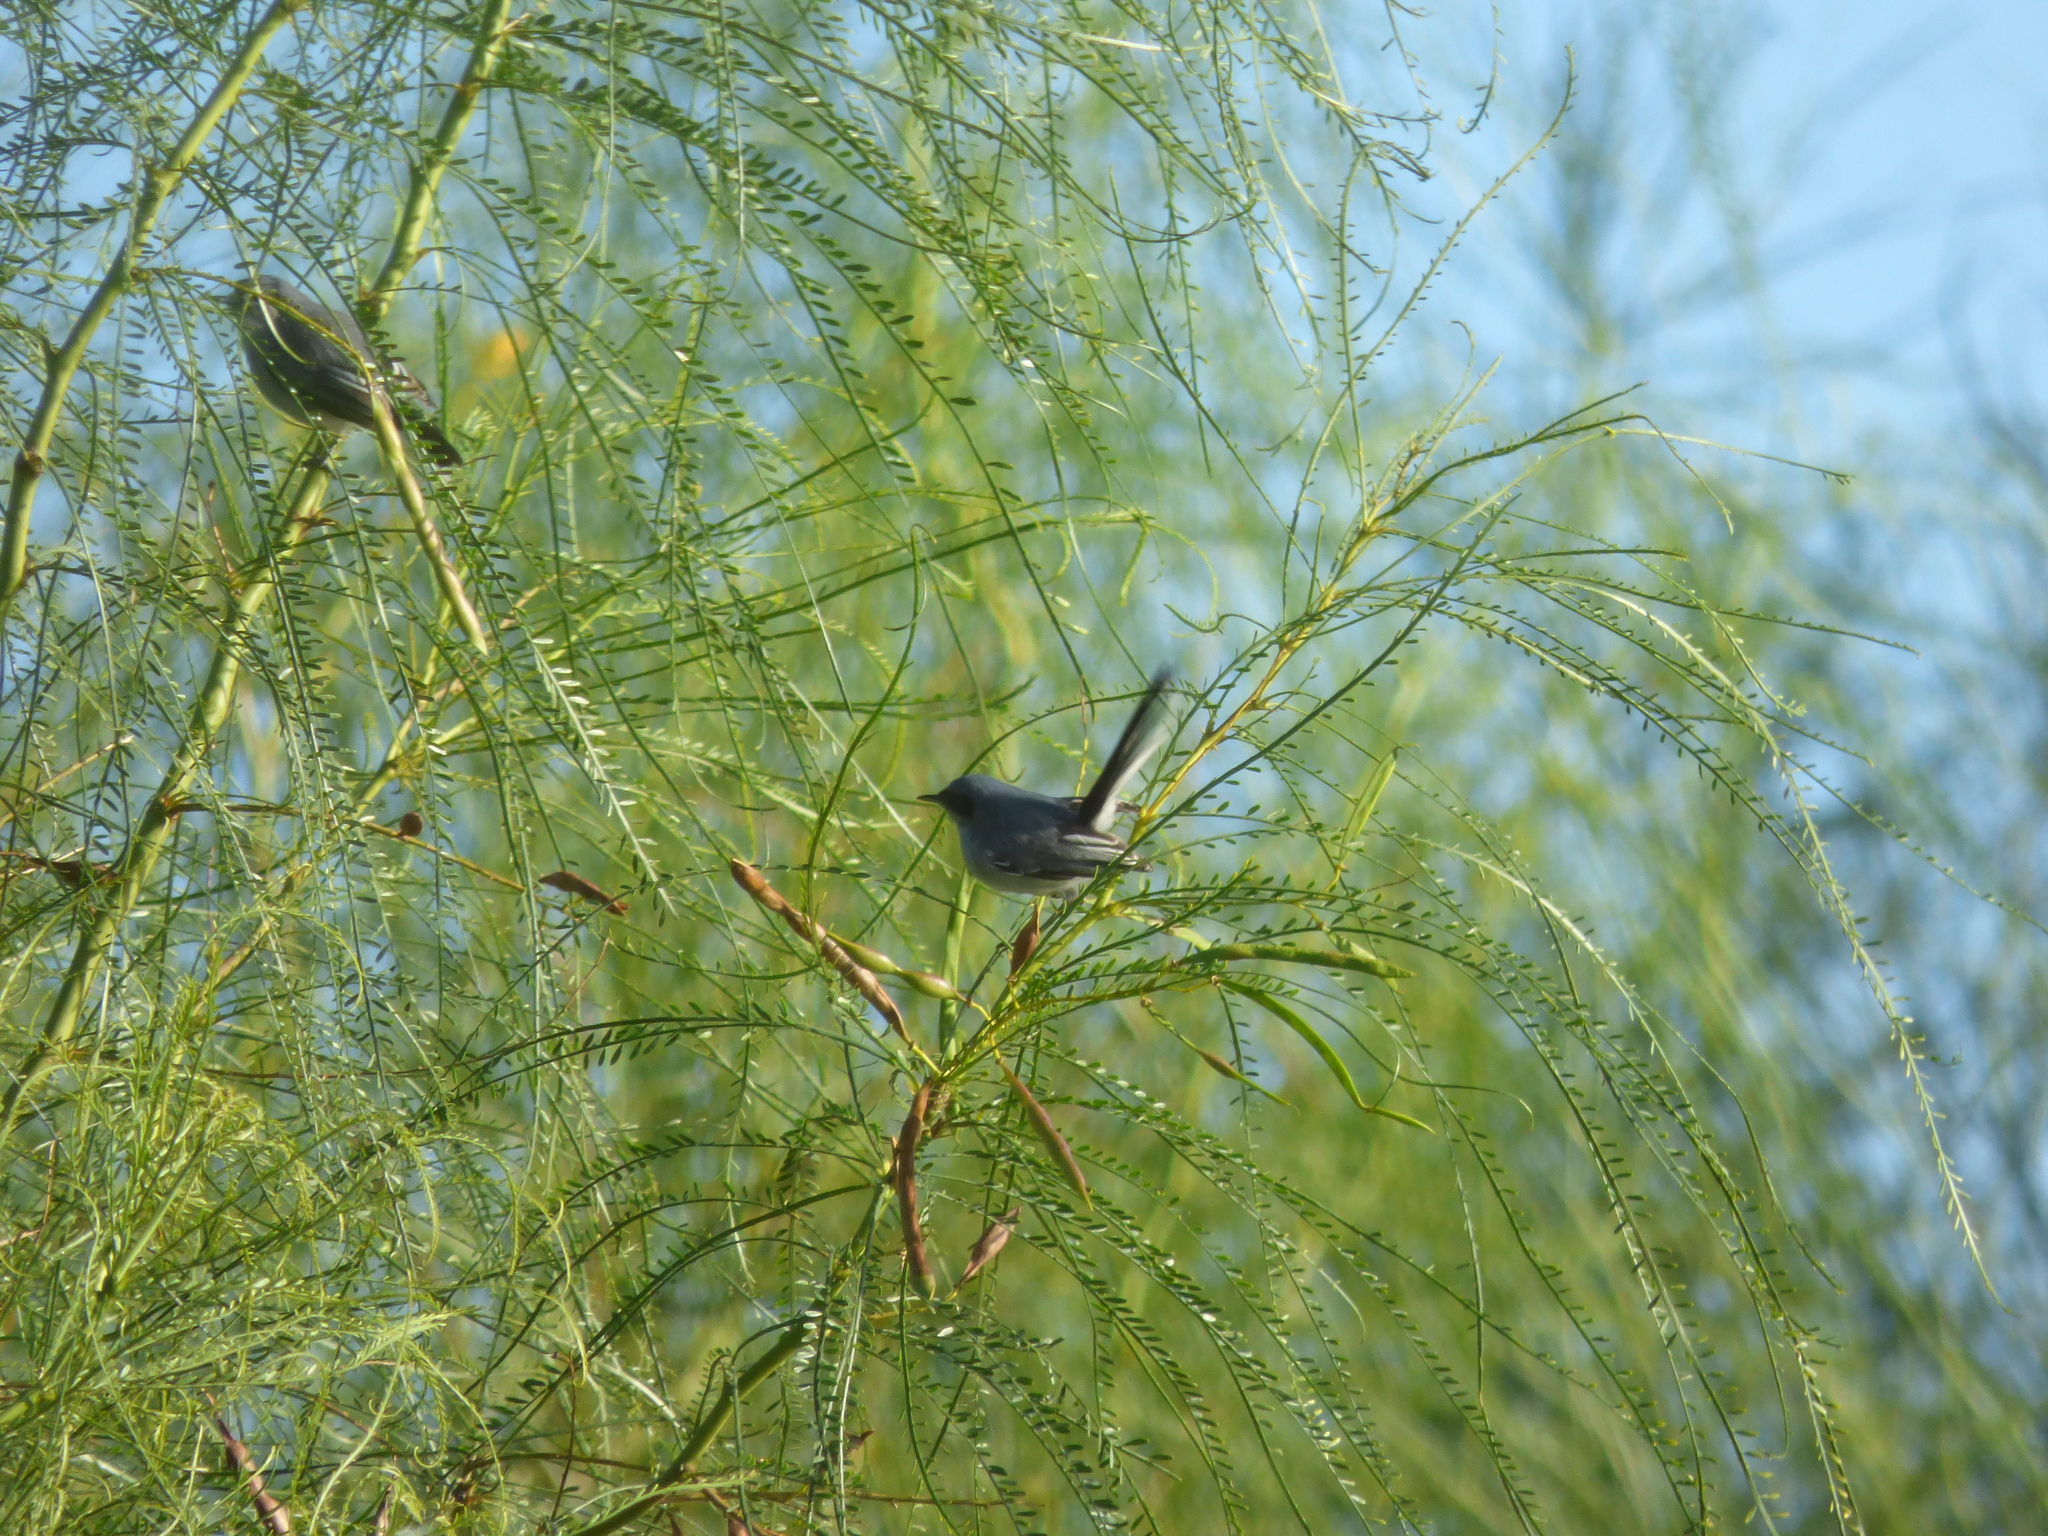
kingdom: Animalia
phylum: Chordata
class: Aves
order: Passeriformes
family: Polioptilidae
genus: Polioptila
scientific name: Polioptila dumicola
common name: Masked gnatcatcher
